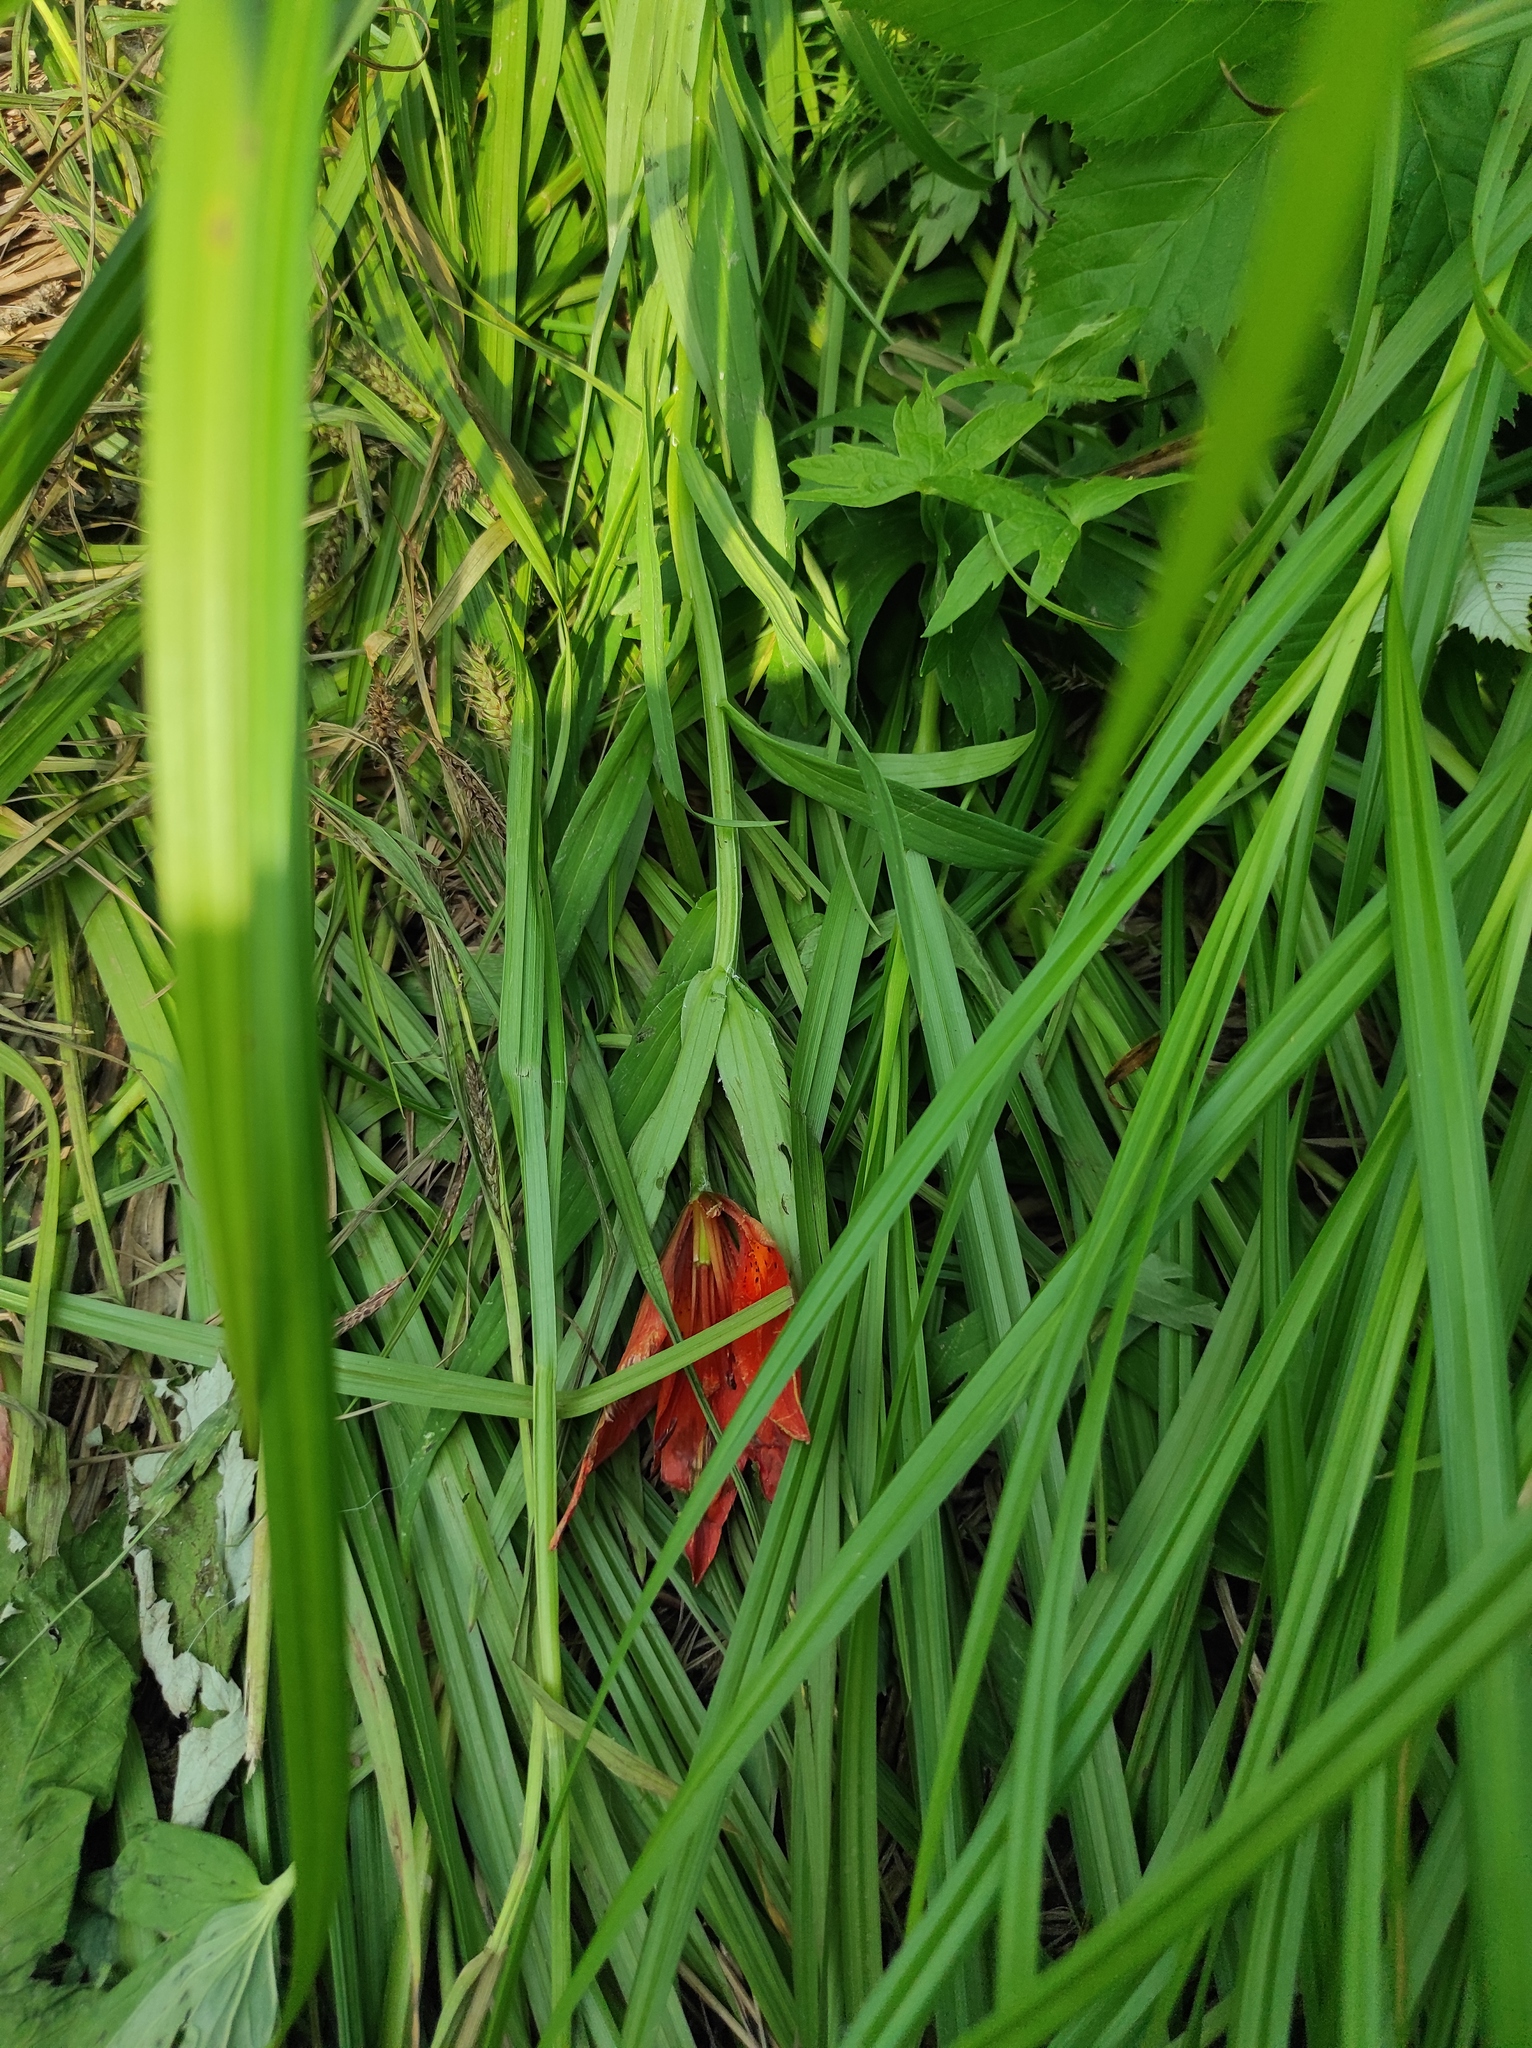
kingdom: Plantae
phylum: Tracheophyta
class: Liliopsida
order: Liliales
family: Liliaceae
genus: Lilium
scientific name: Lilium pensylvanicum
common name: Candlestick lily
